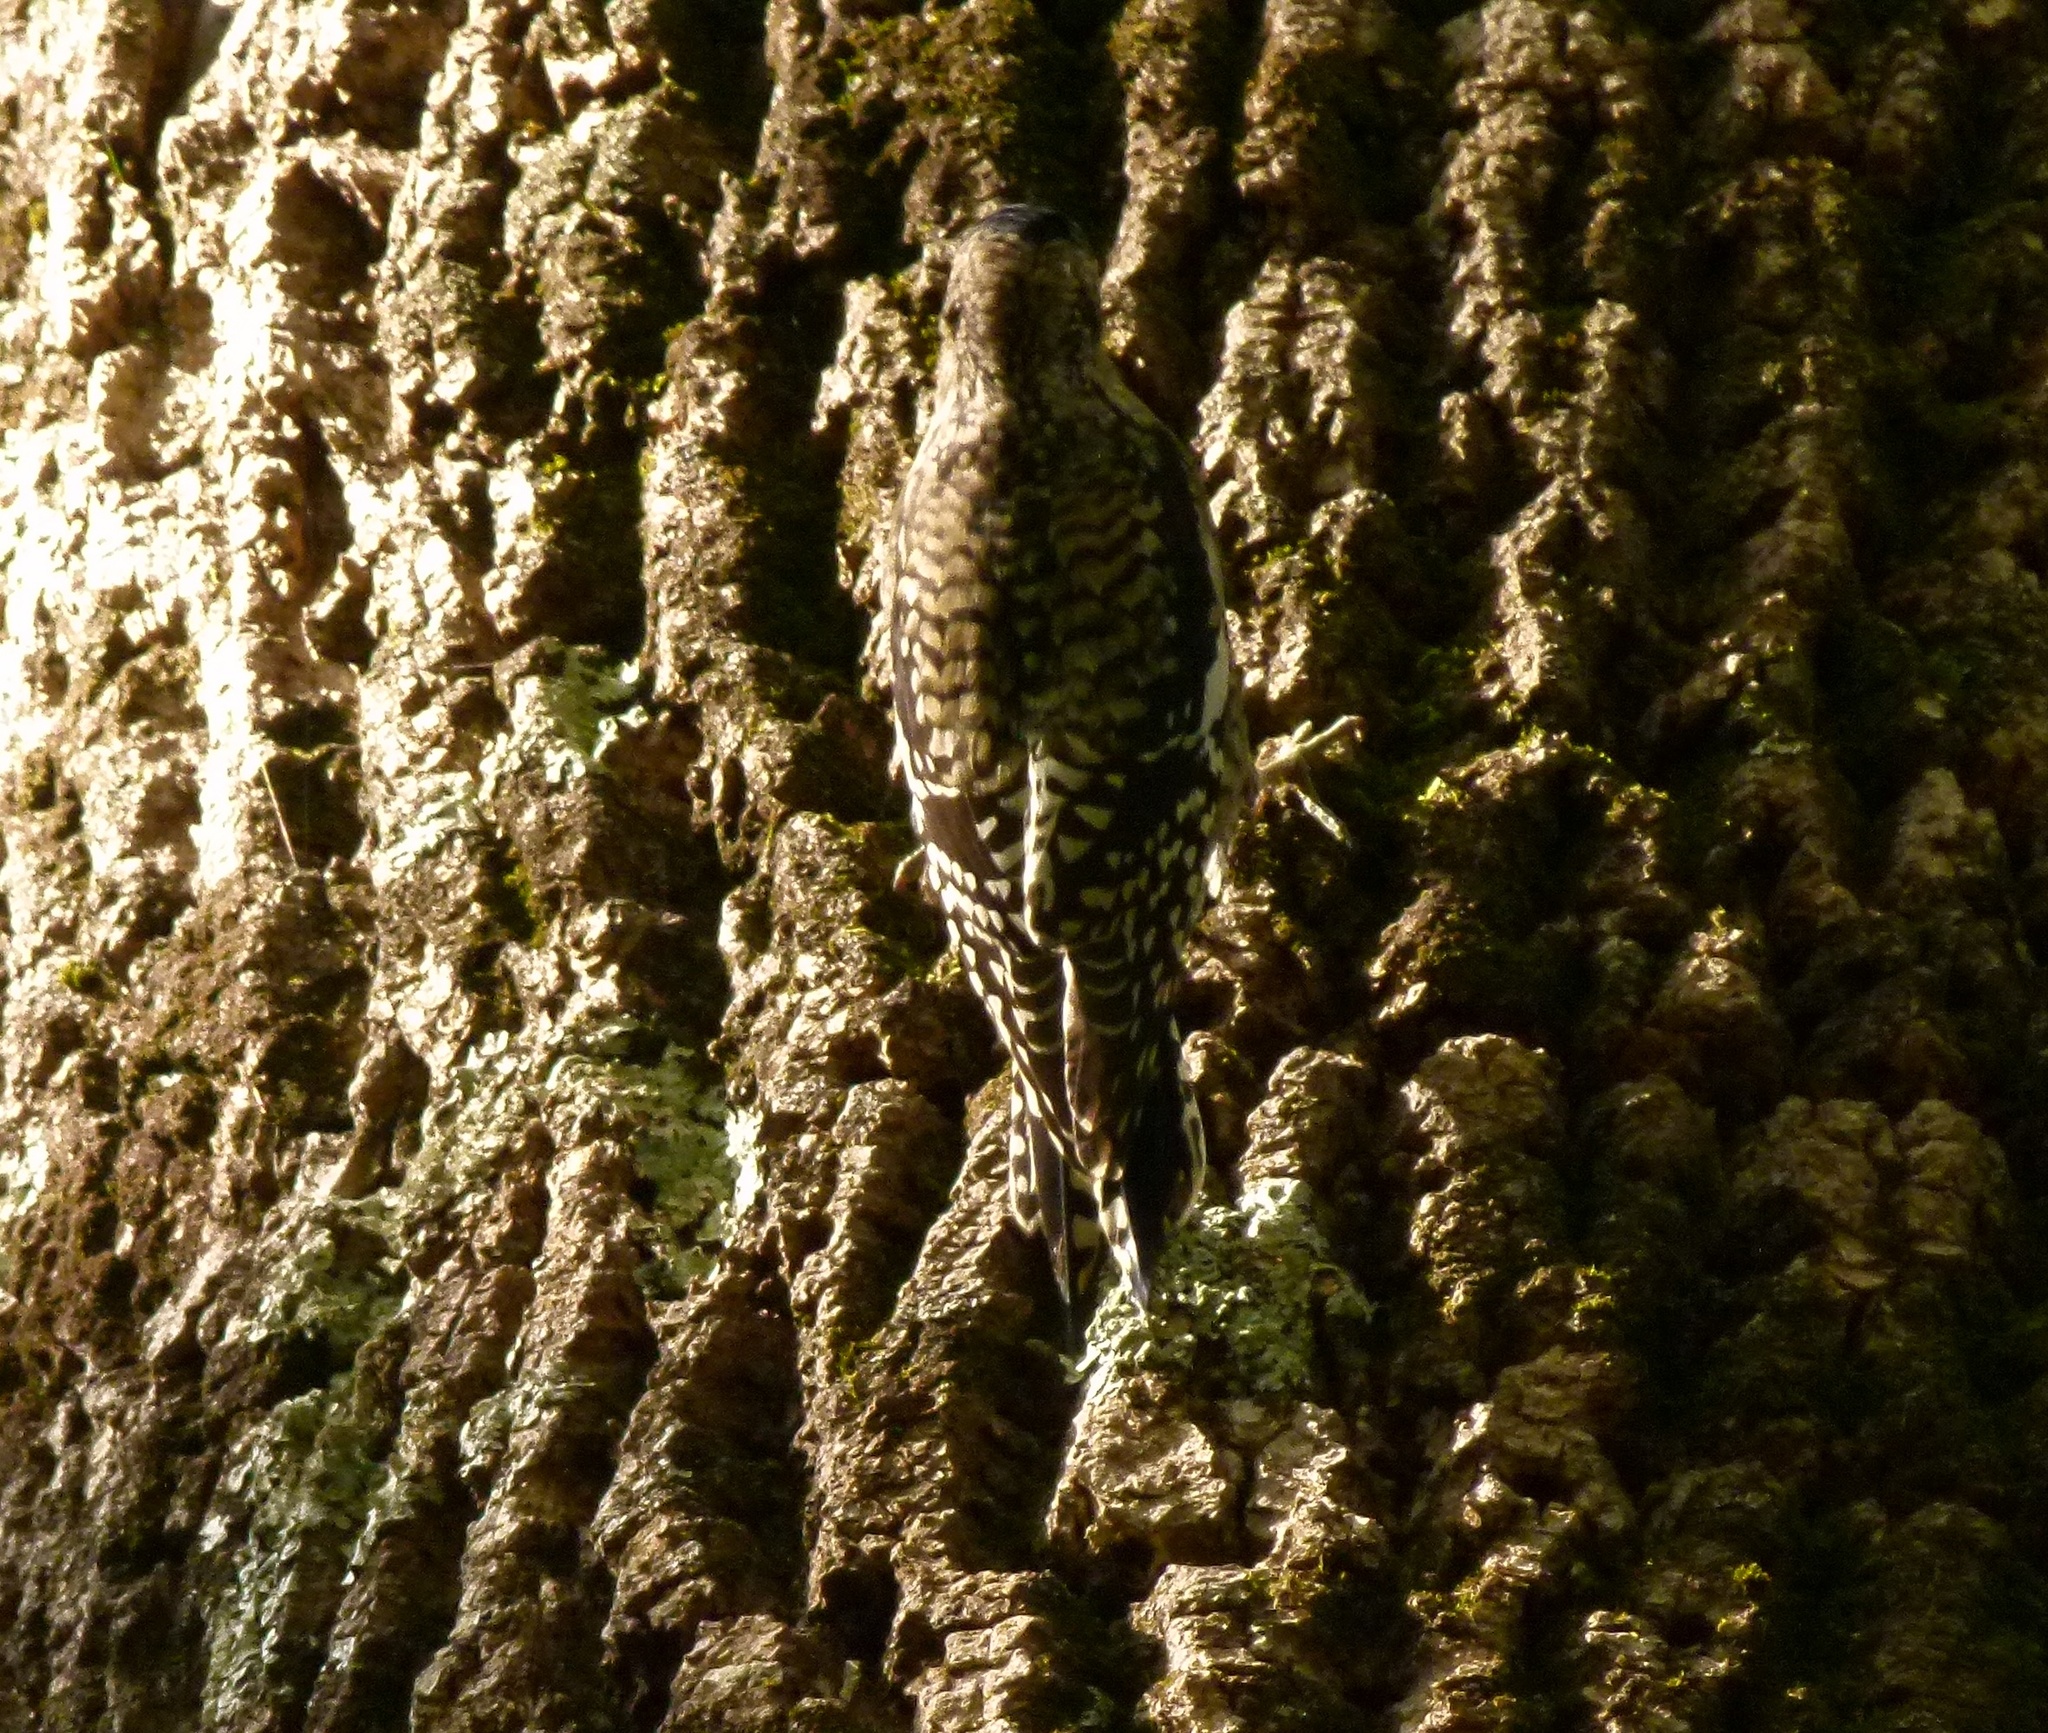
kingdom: Animalia
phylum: Chordata
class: Aves
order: Piciformes
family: Picidae
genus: Sphyrapicus
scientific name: Sphyrapicus varius
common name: Yellow-bellied sapsucker
